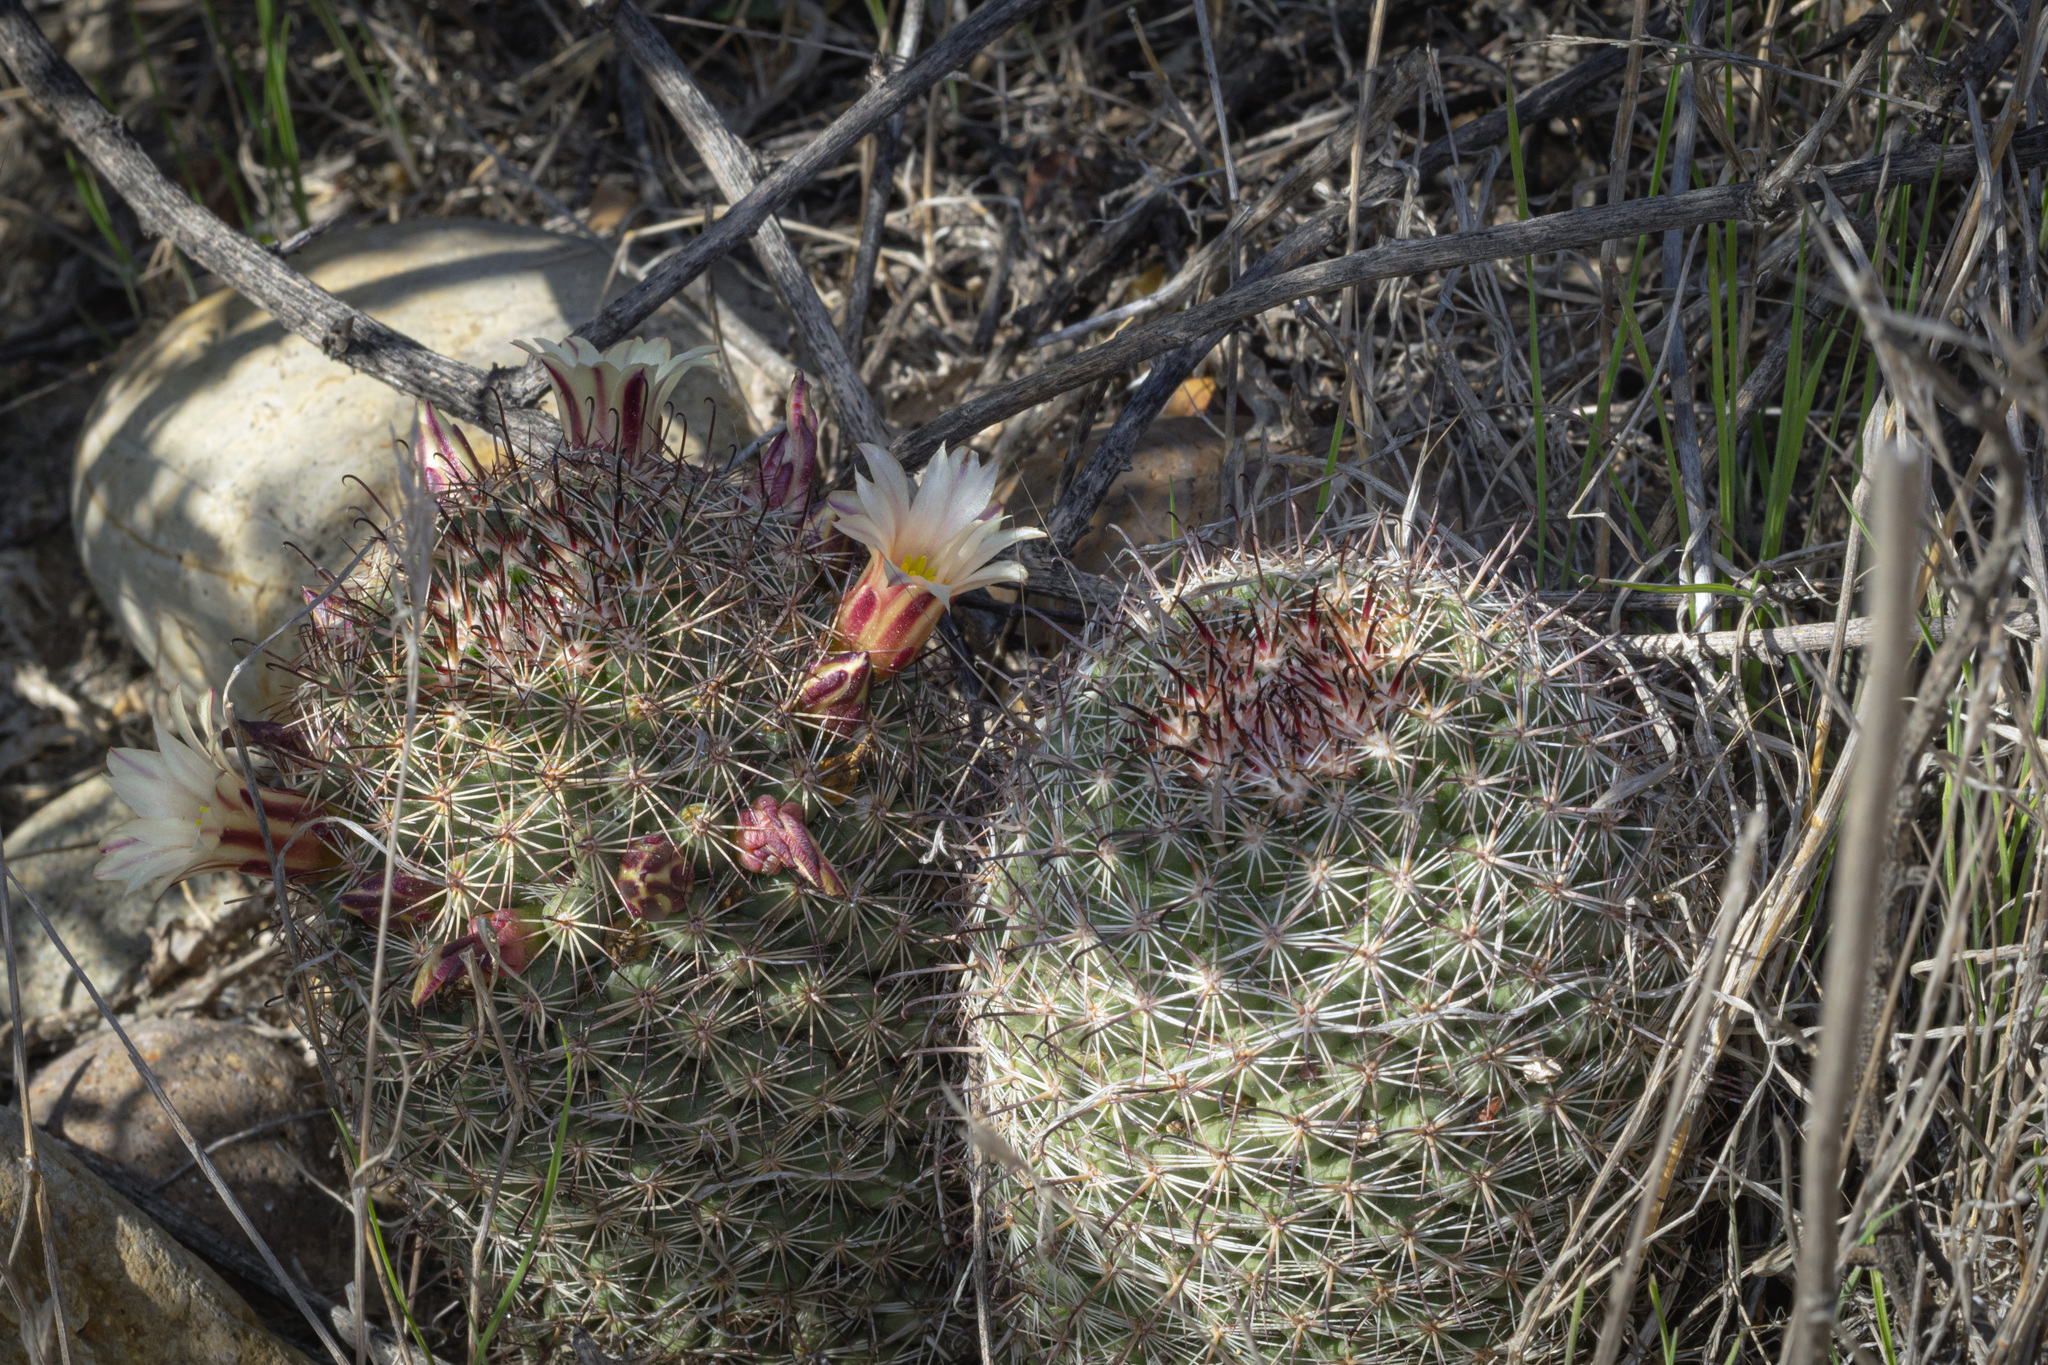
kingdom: Plantae
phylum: Tracheophyta
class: Magnoliopsida
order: Caryophyllales
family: Cactaceae
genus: Cochemiea
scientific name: Cochemiea dioica
